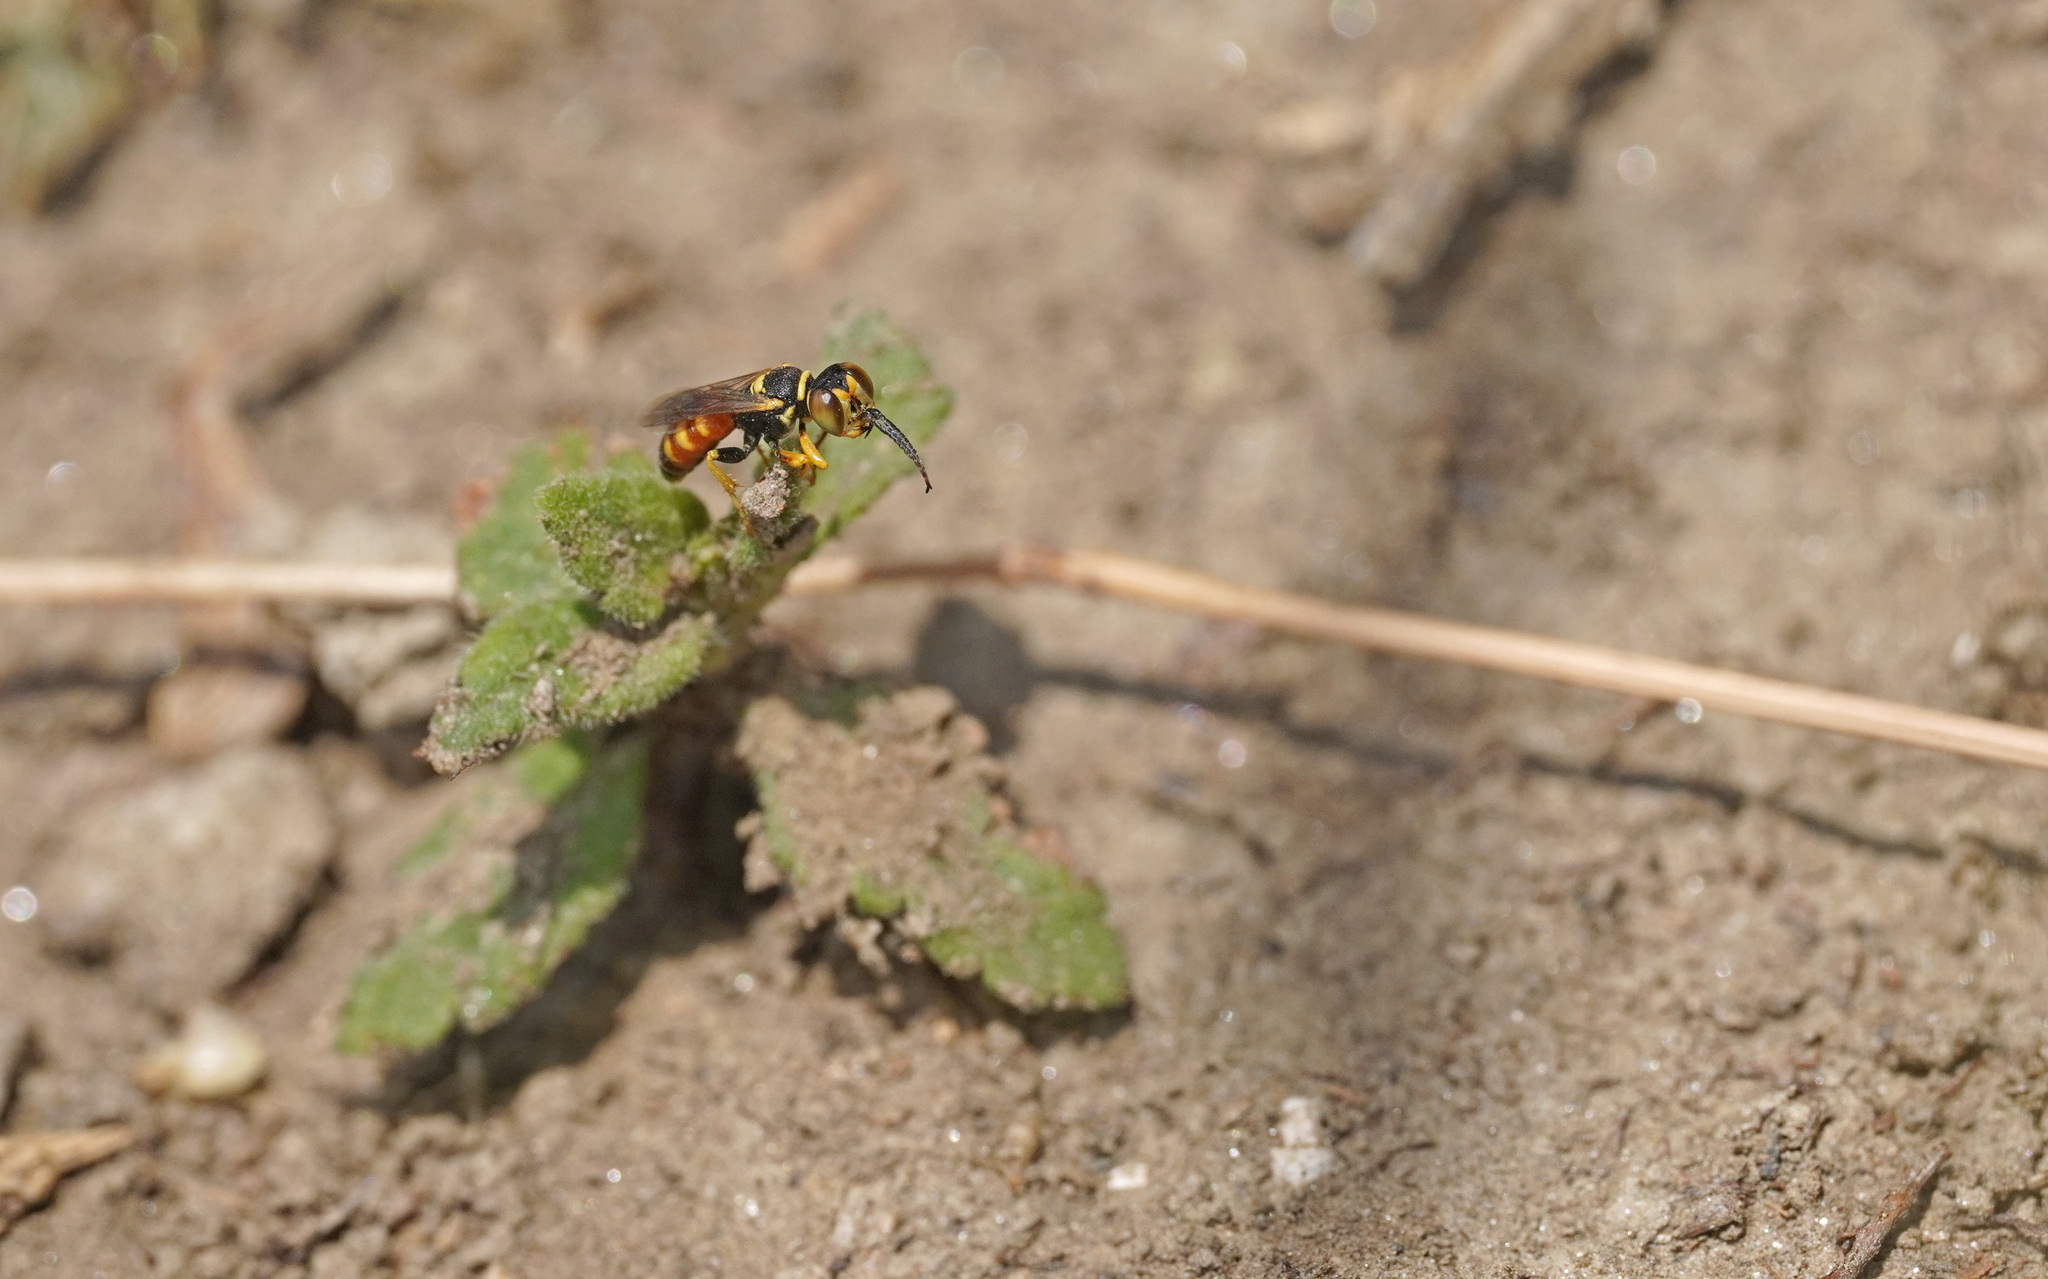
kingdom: Animalia
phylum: Arthropoda
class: Insecta
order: Hymenoptera
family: Crabronidae
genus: Dinetus
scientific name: Dinetus pictus
